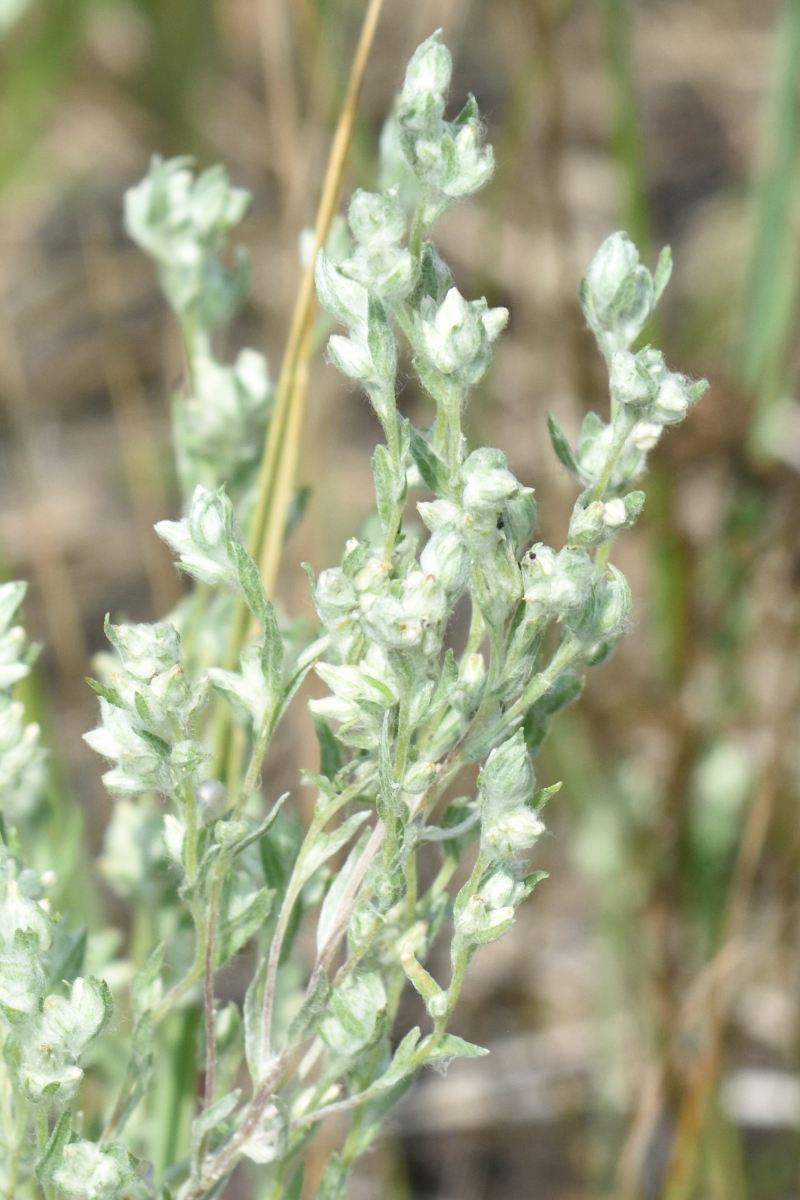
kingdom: Plantae
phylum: Tracheophyta
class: Magnoliopsida
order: Asterales
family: Asteraceae
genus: Filago
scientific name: Filago arvensis
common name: Field cudweed
